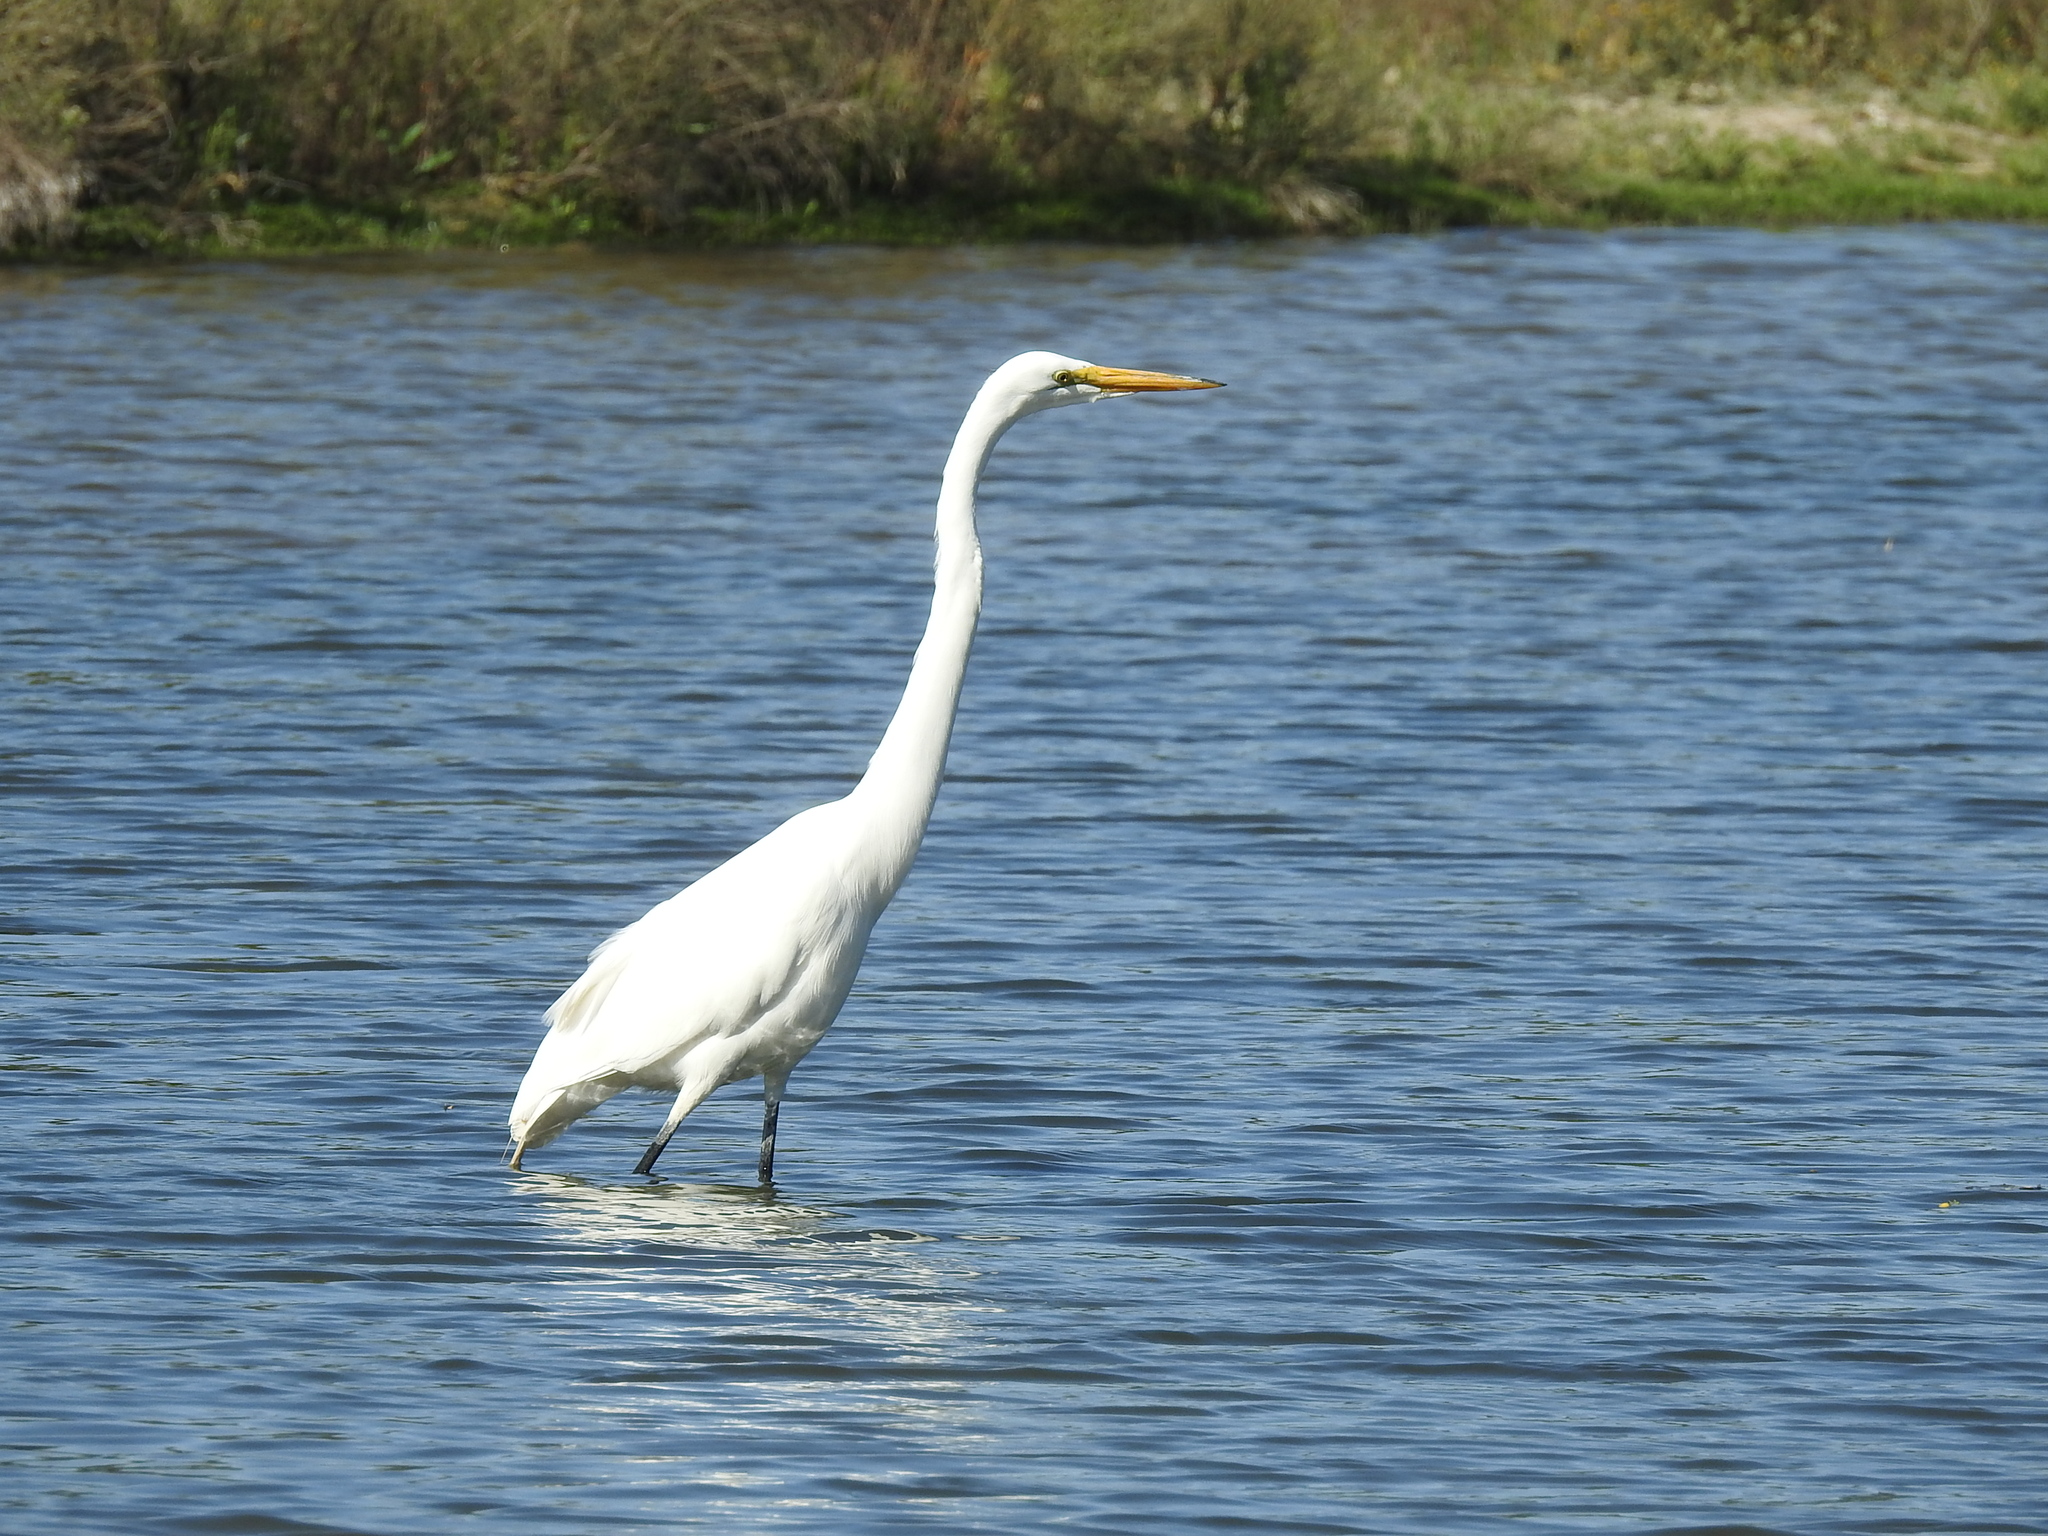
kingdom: Animalia
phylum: Chordata
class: Aves
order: Pelecaniformes
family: Ardeidae
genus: Ardea
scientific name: Ardea alba
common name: Great egret
